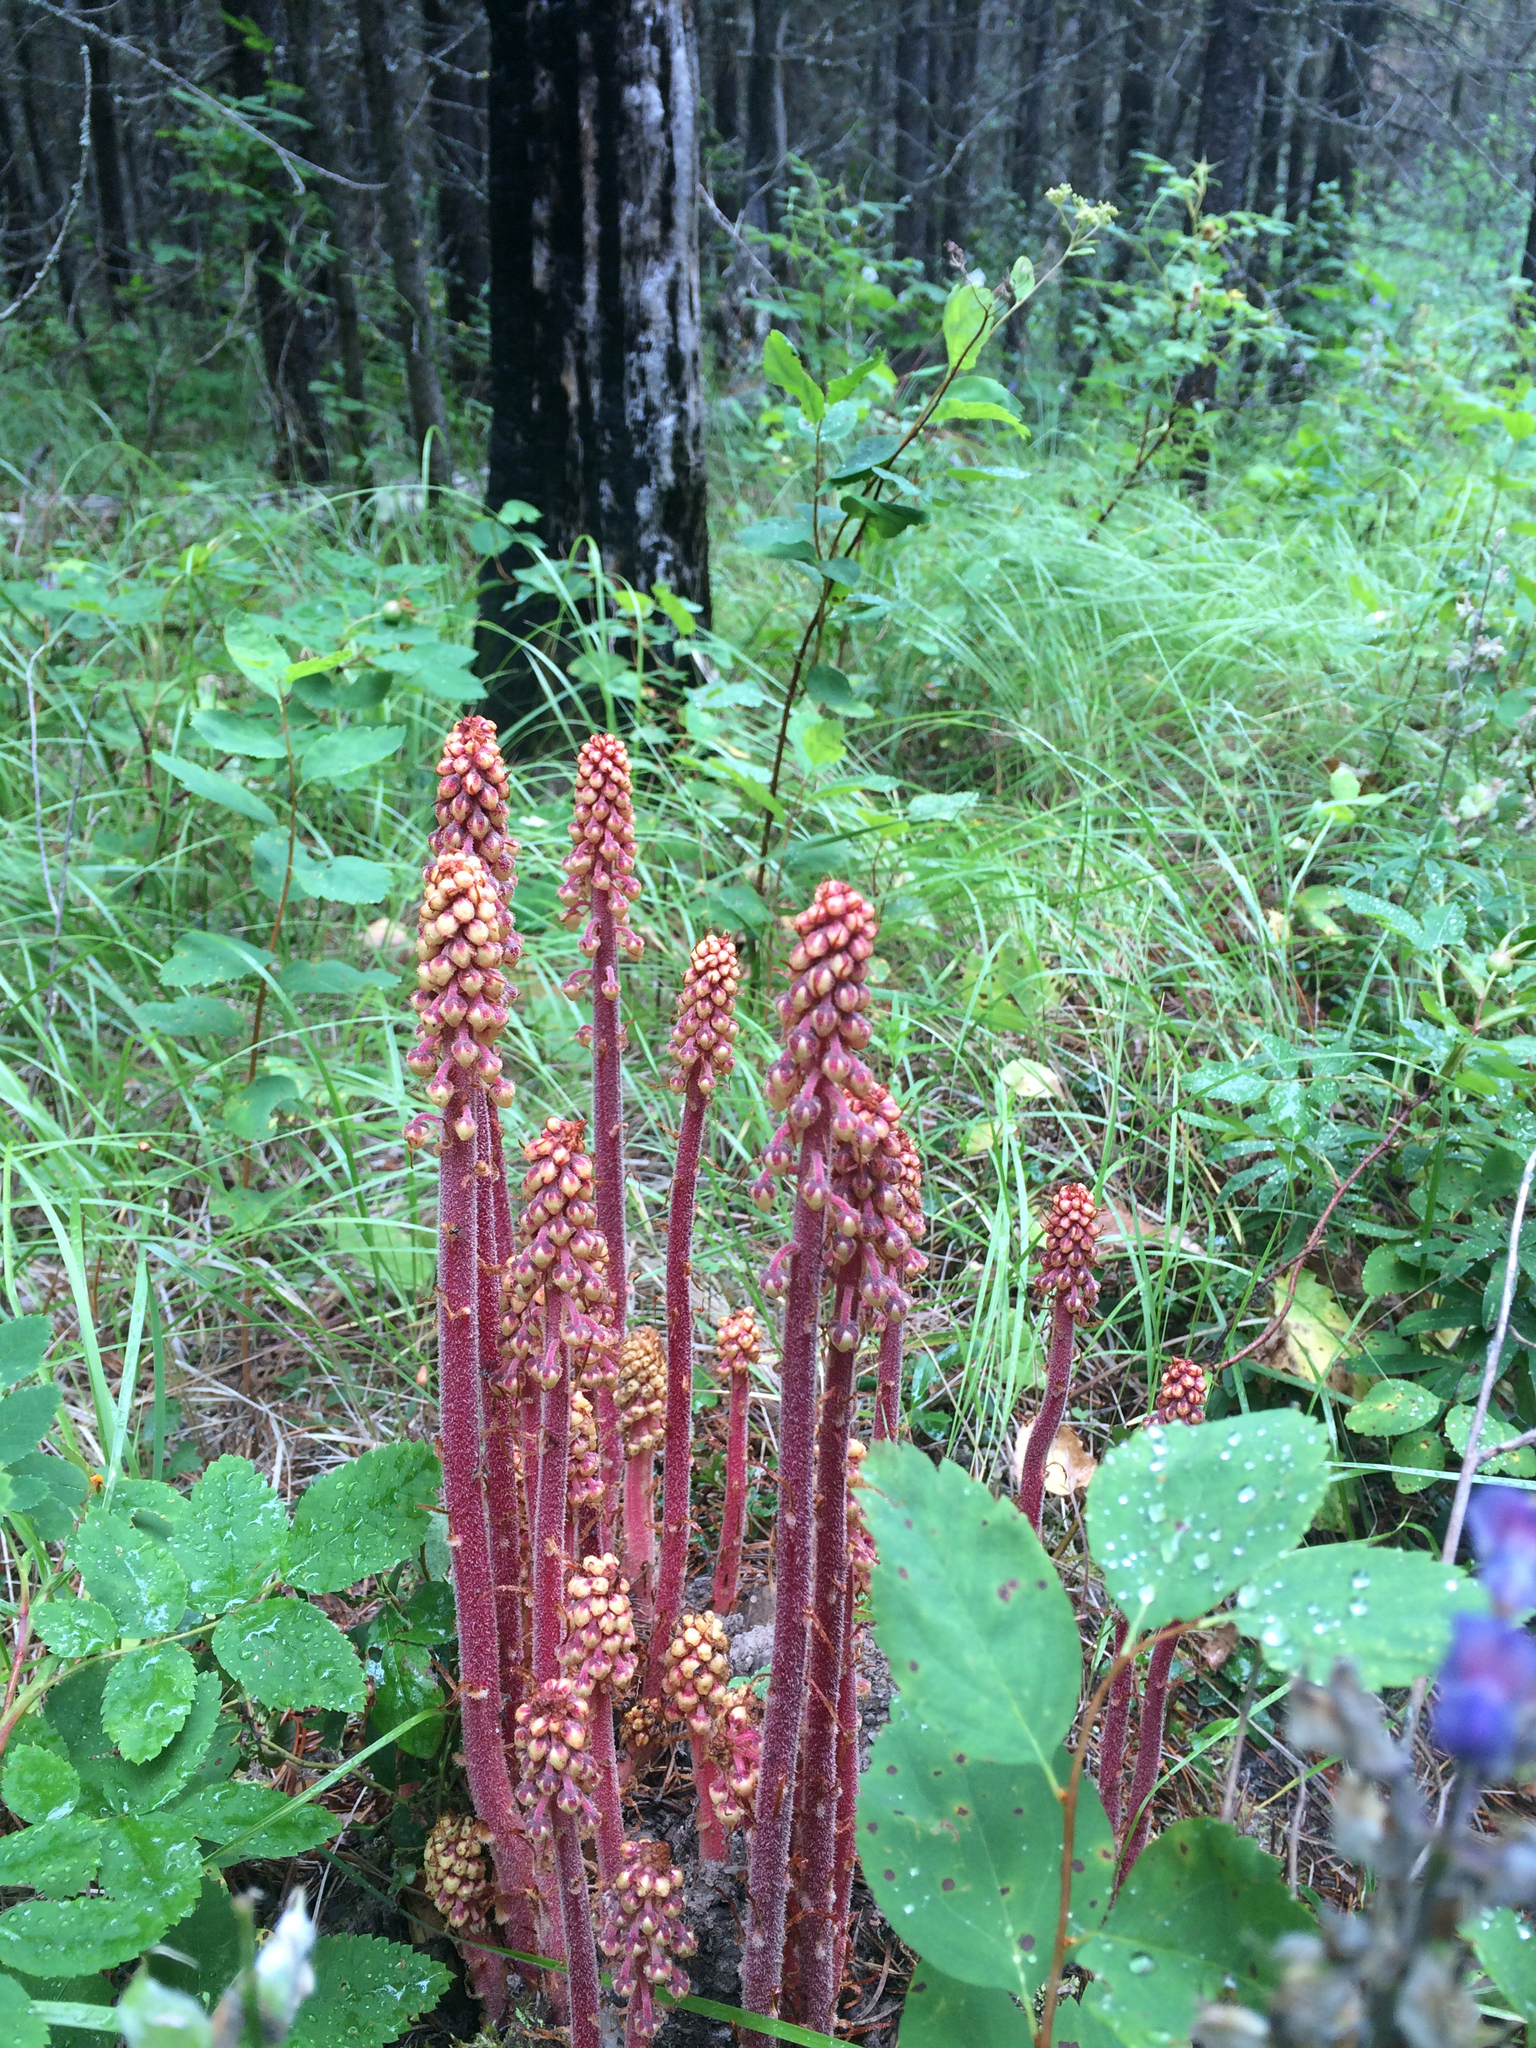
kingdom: Plantae
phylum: Tracheophyta
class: Magnoliopsida
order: Ericales
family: Ericaceae
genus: Pterospora
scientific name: Pterospora andromedea
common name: Giant bird's-nest
